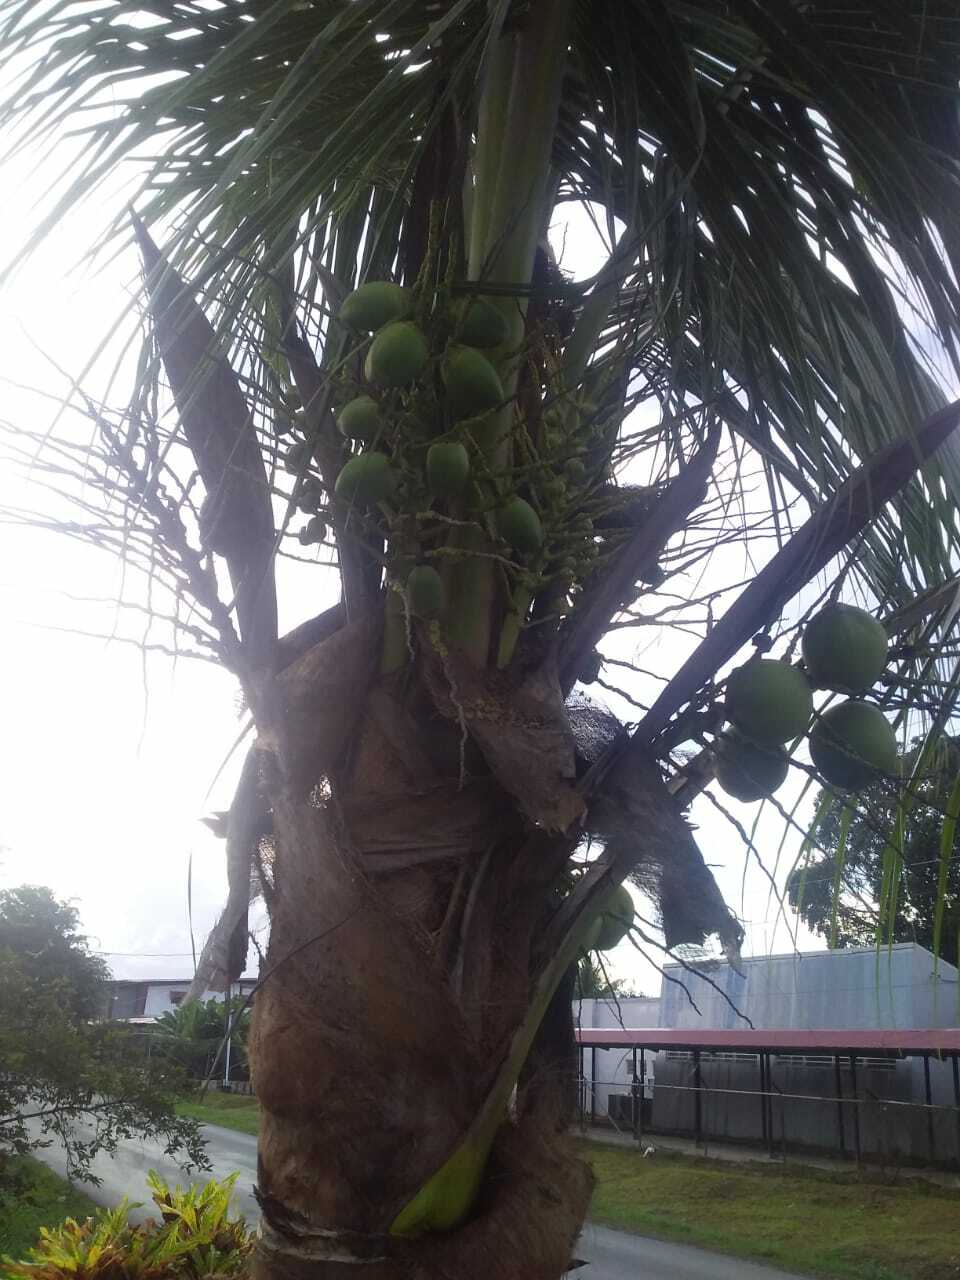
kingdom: Plantae
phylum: Tracheophyta
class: Liliopsida
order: Arecales
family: Arecaceae
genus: Cocos
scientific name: Cocos nucifera
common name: Coconut palm
